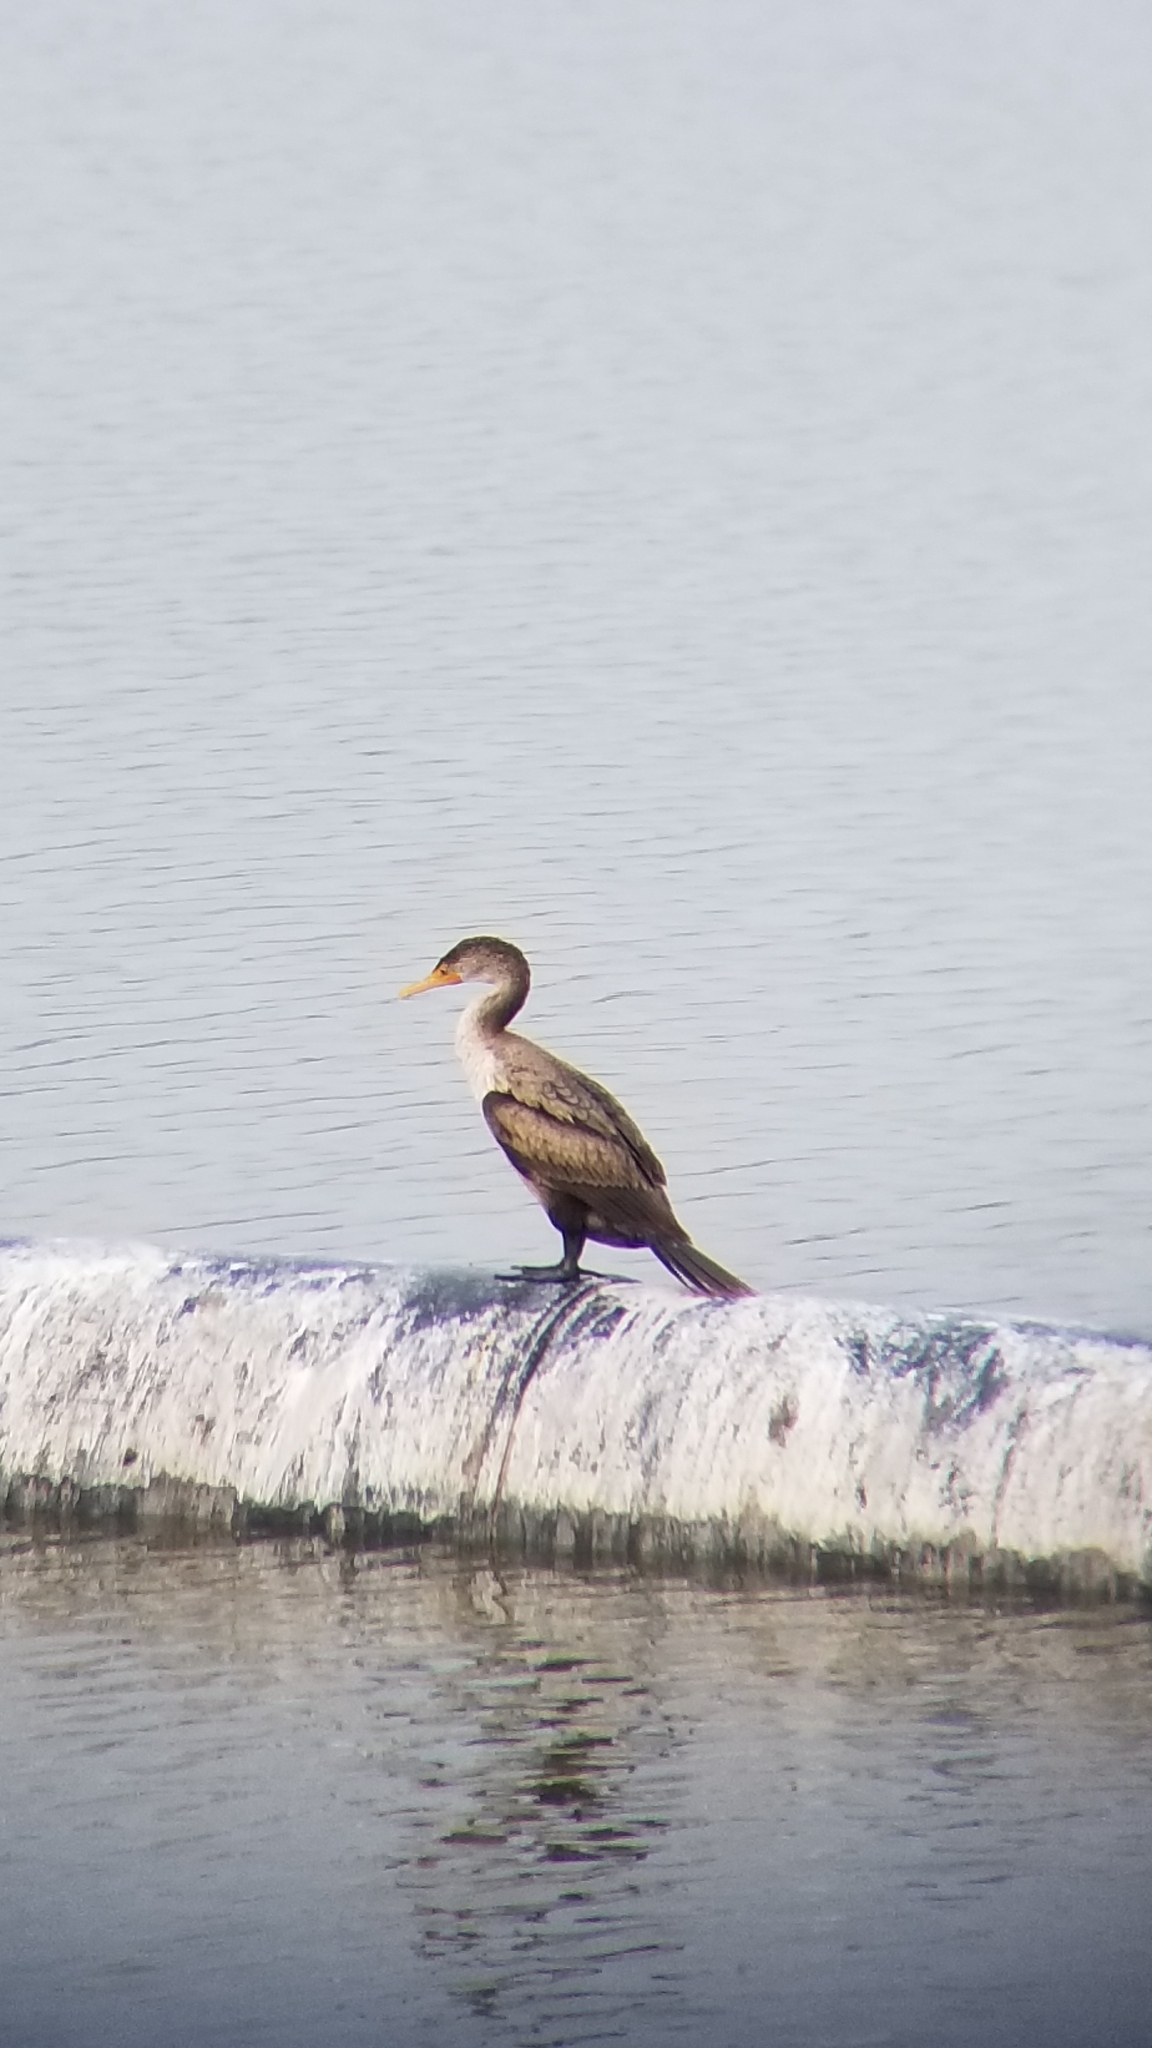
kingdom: Animalia
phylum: Chordata
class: Aves
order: Suliformes
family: Phalacrocoracidae
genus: Phalacrocorax
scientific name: Phalacrocorax auritus
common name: Double-crested cormorant
